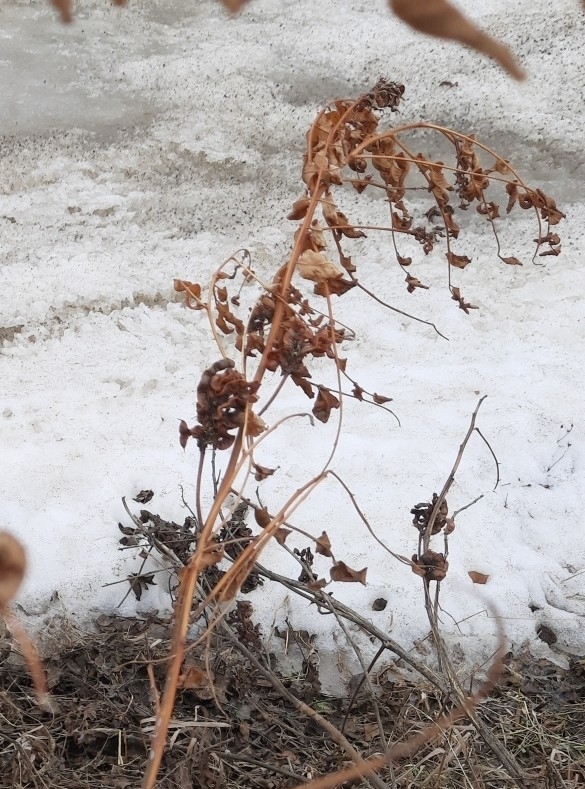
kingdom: Plantae
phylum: Tracheophyta
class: Magnoliopsida
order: Fabales
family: Fabaceae
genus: Glycyrrhiza
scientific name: Glycyrrhiza uralensis
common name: Chinese licorice
